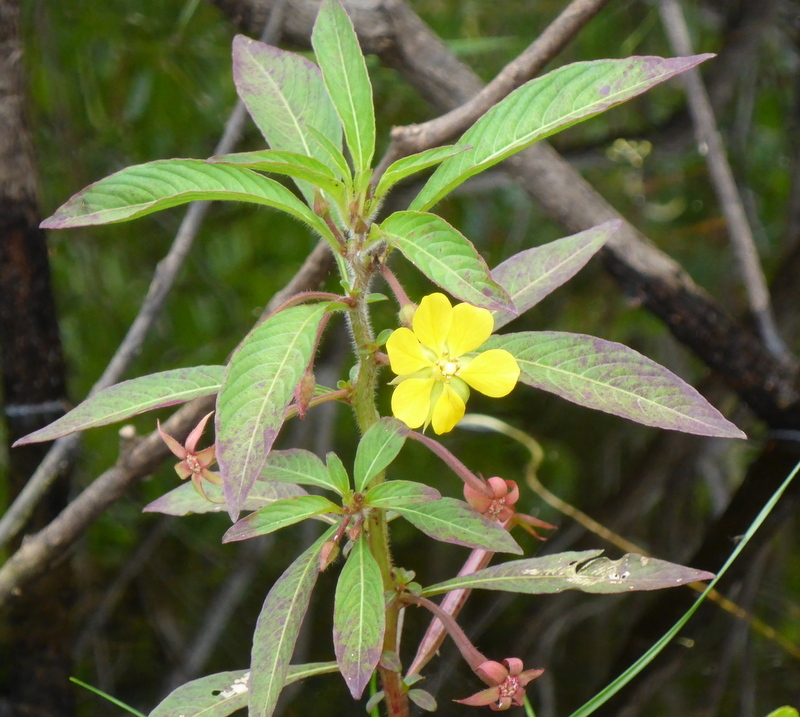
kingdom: Plantae
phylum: Tracheophyta
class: Magnoliopsida
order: Myrtales
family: Onagraceae
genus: Ludwigia
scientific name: Ludwigia leptocarpa
